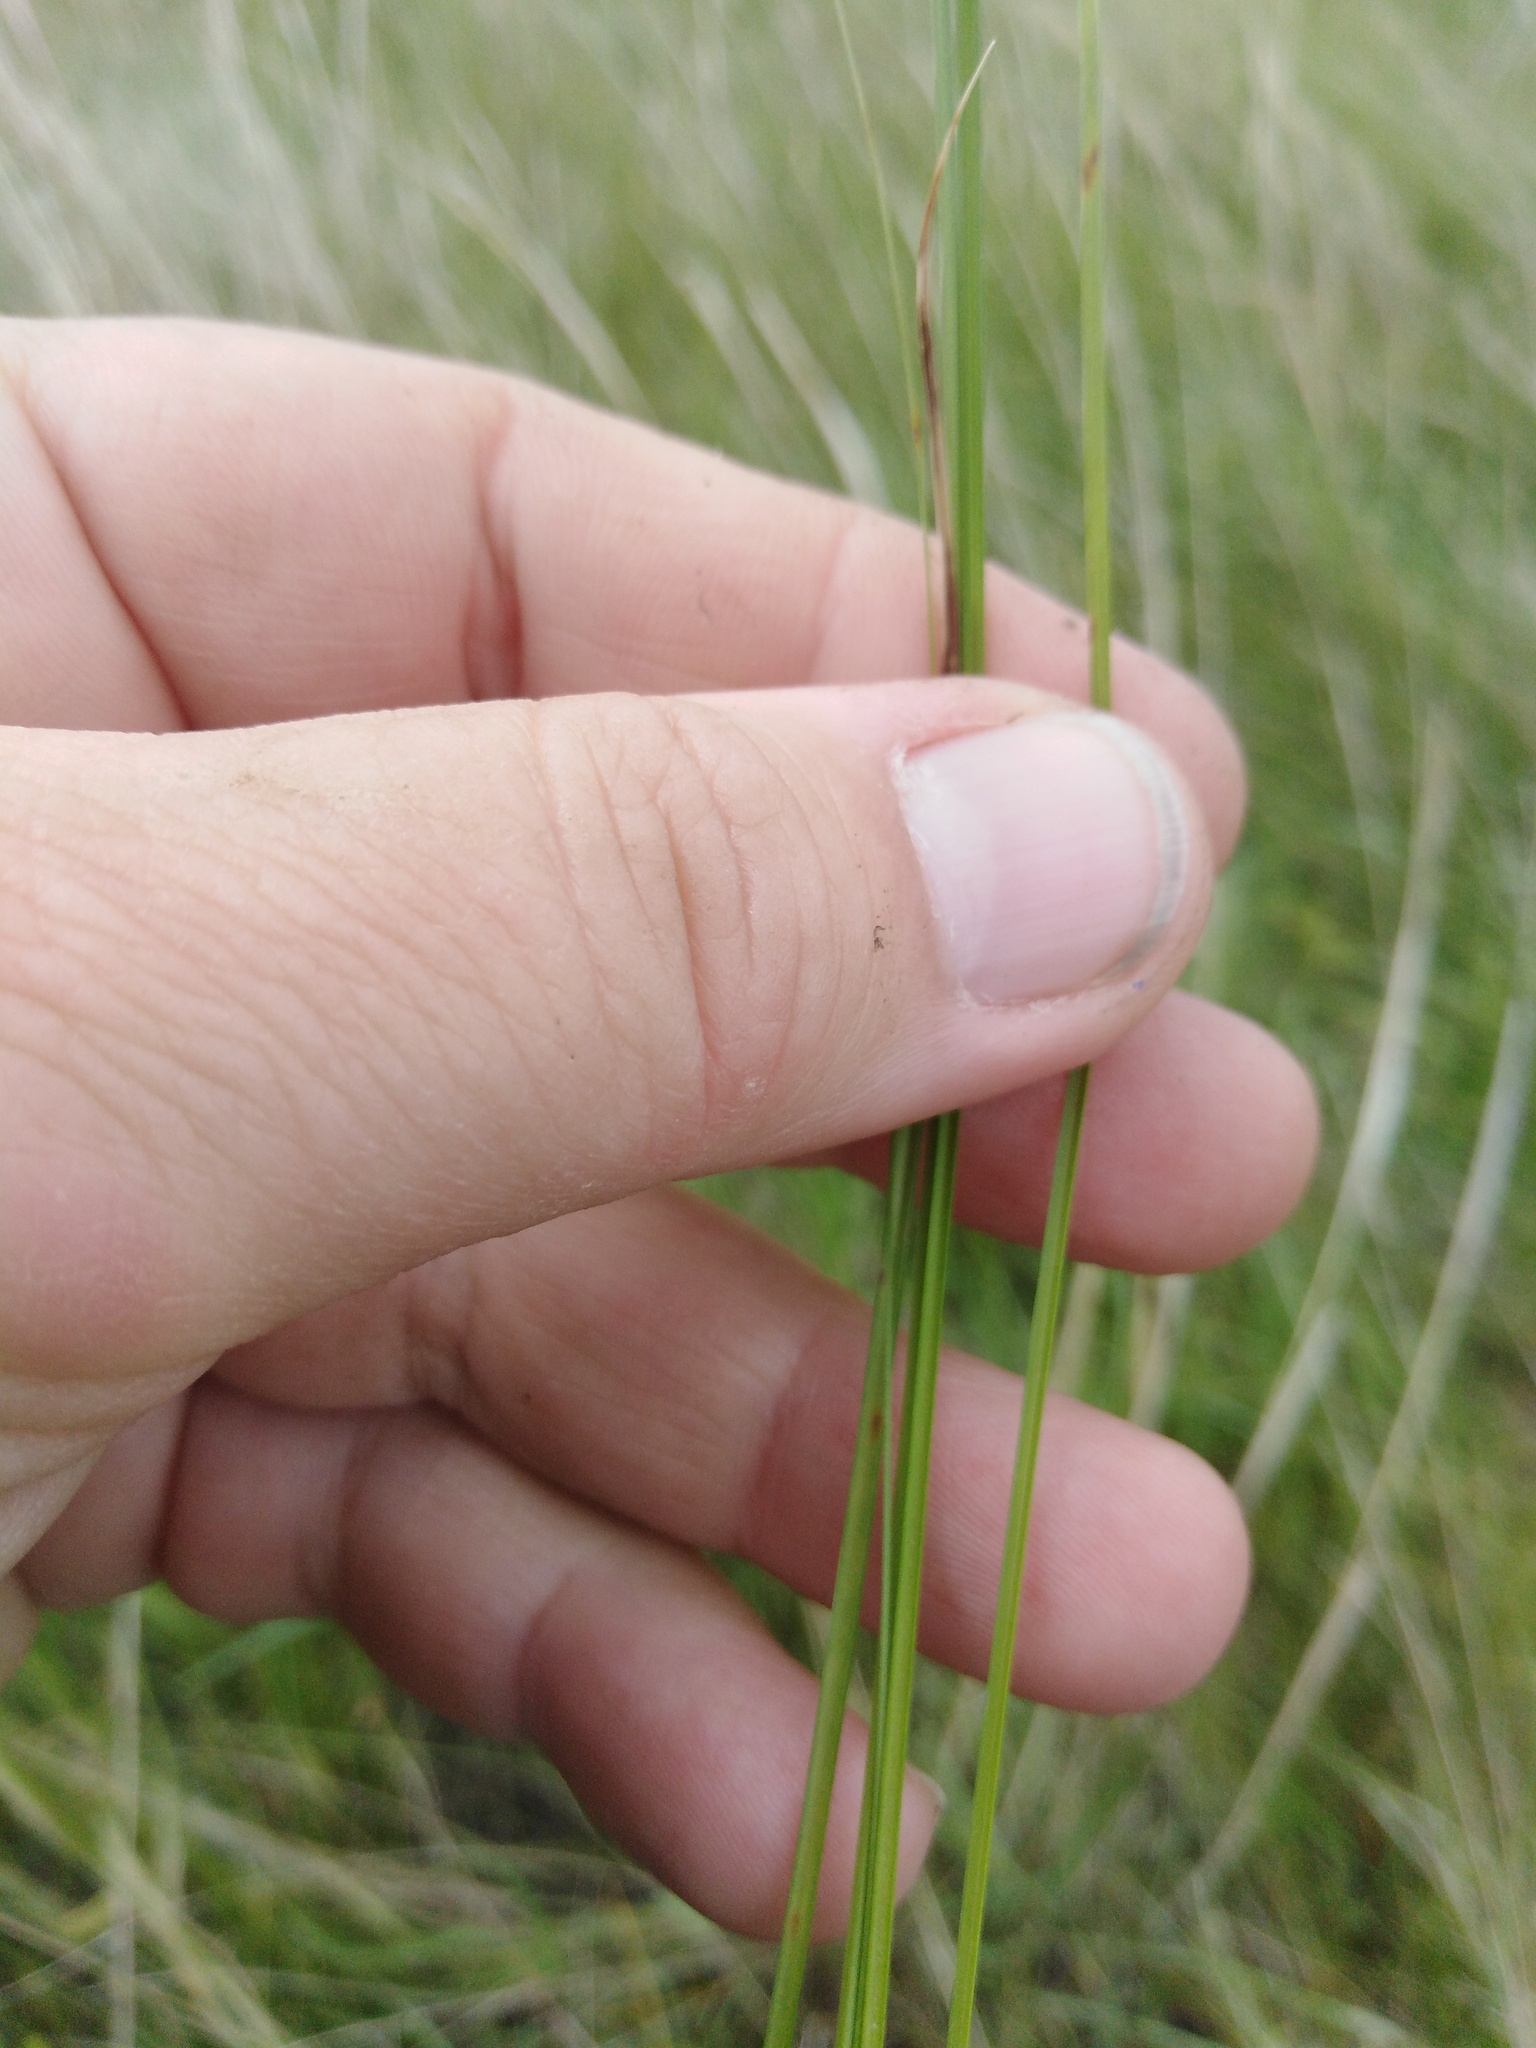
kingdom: Plantae
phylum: Tracheophyta
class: Liliopsida
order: Poales
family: Poaceae
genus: Stipa
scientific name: Stipa pennata
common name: European feather grass
